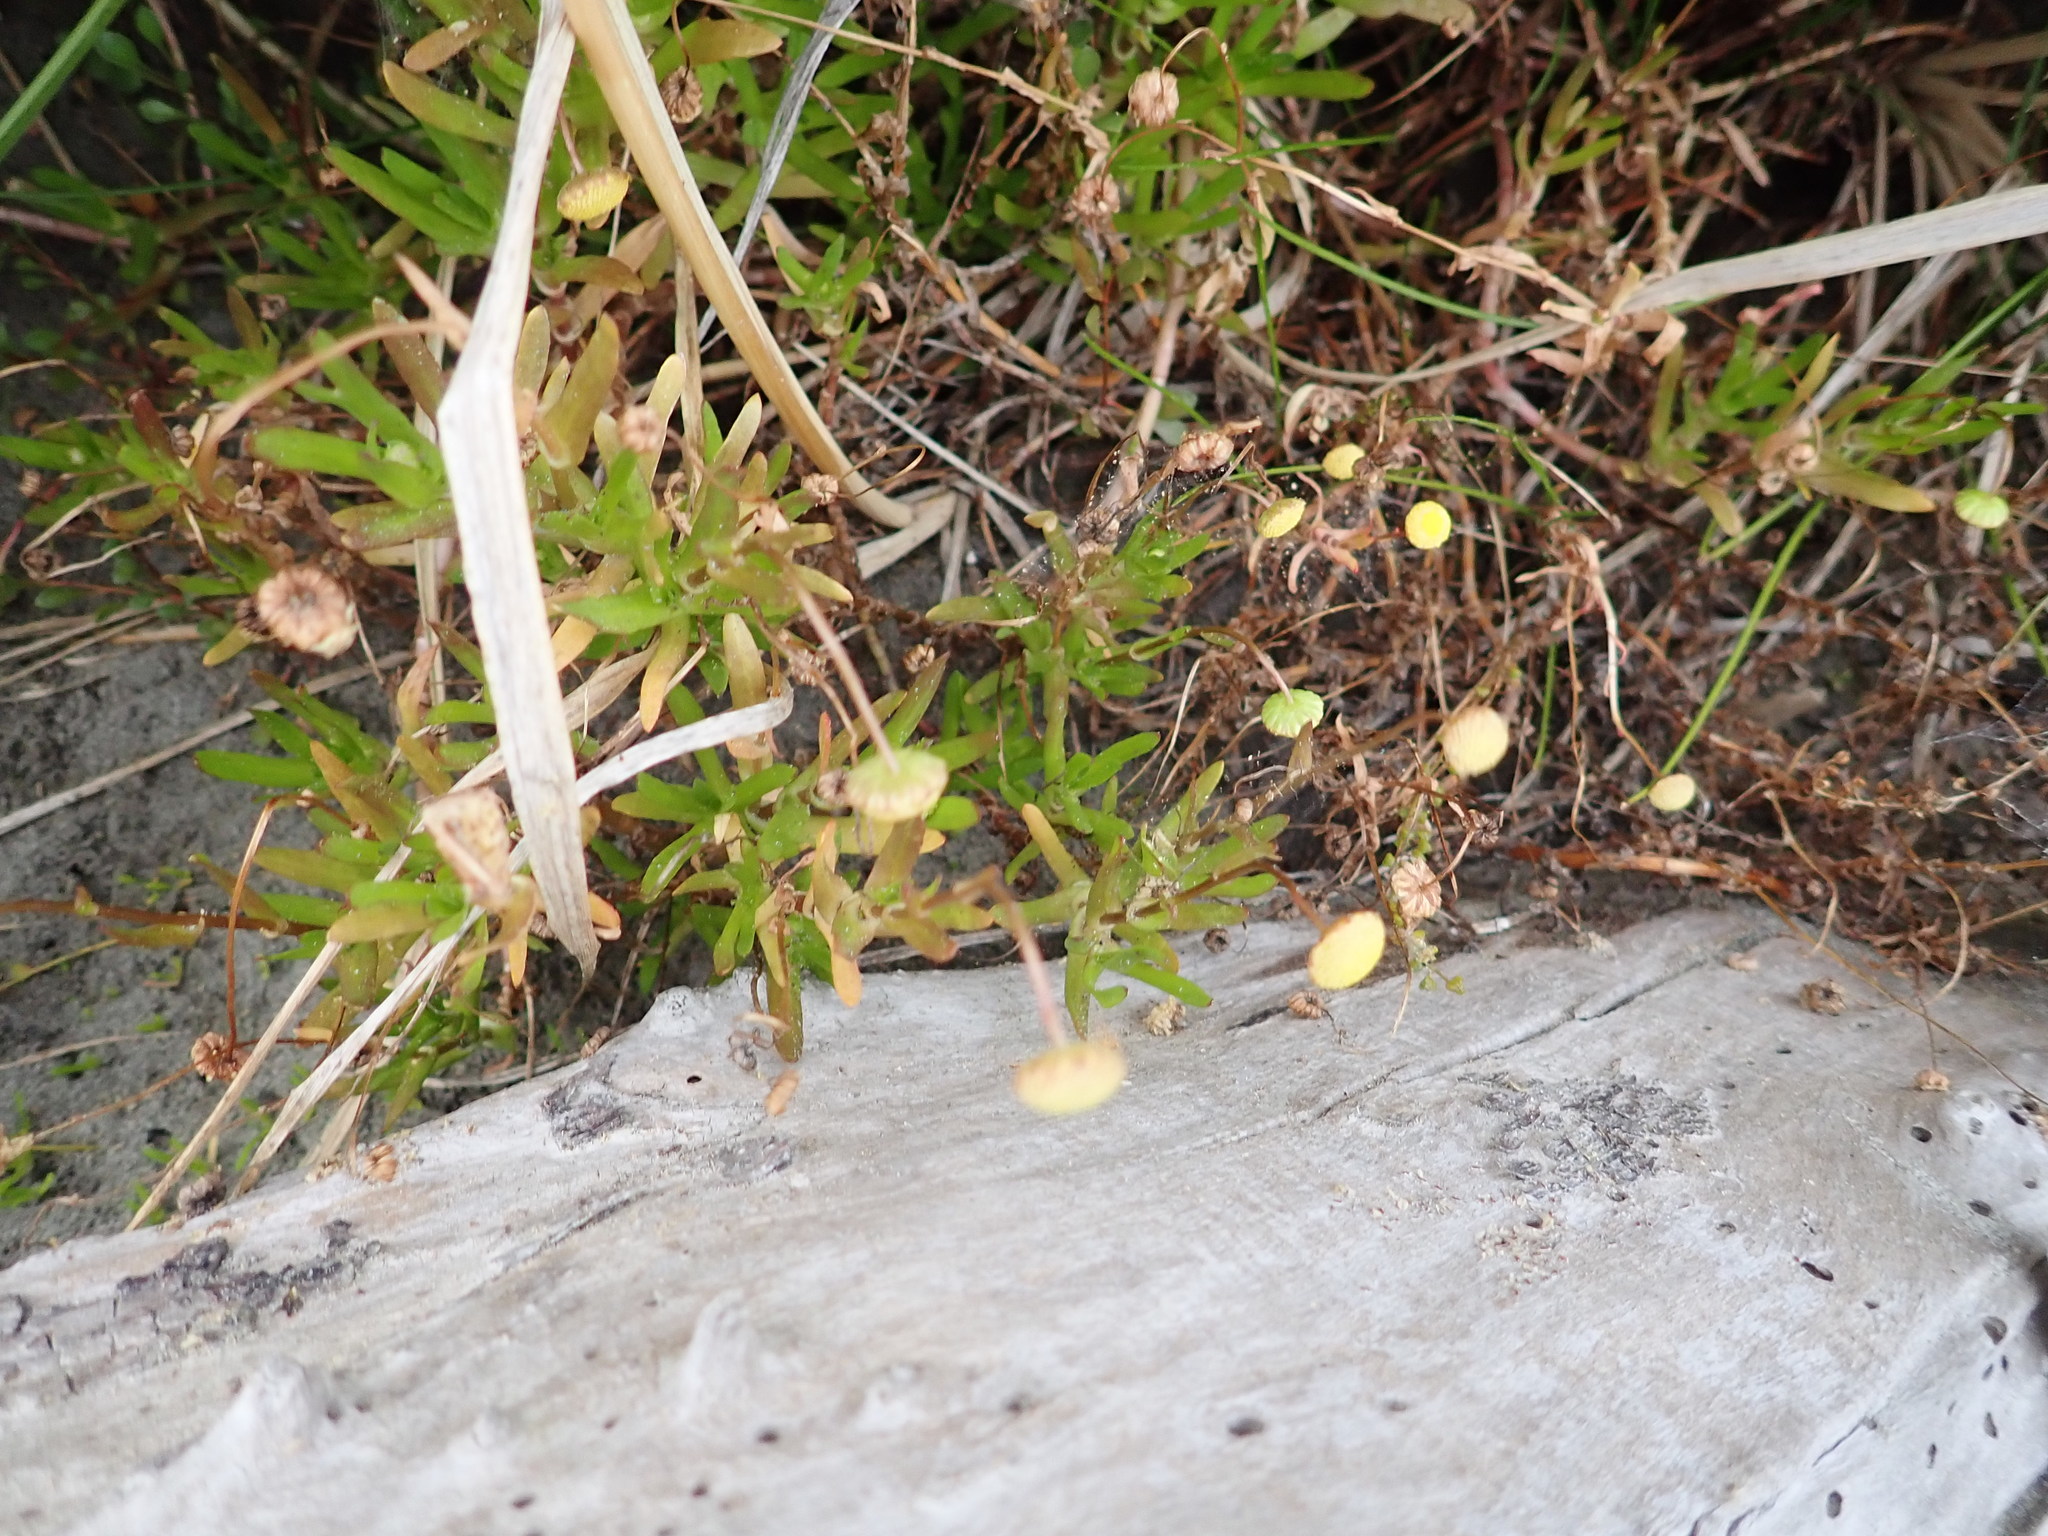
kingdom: Plantae
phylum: Tracheophyta
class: Magnoliopsida
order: Asterales
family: Asteraceae
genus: Cotula
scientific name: Cotula coronopifolia
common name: Buttonweed
